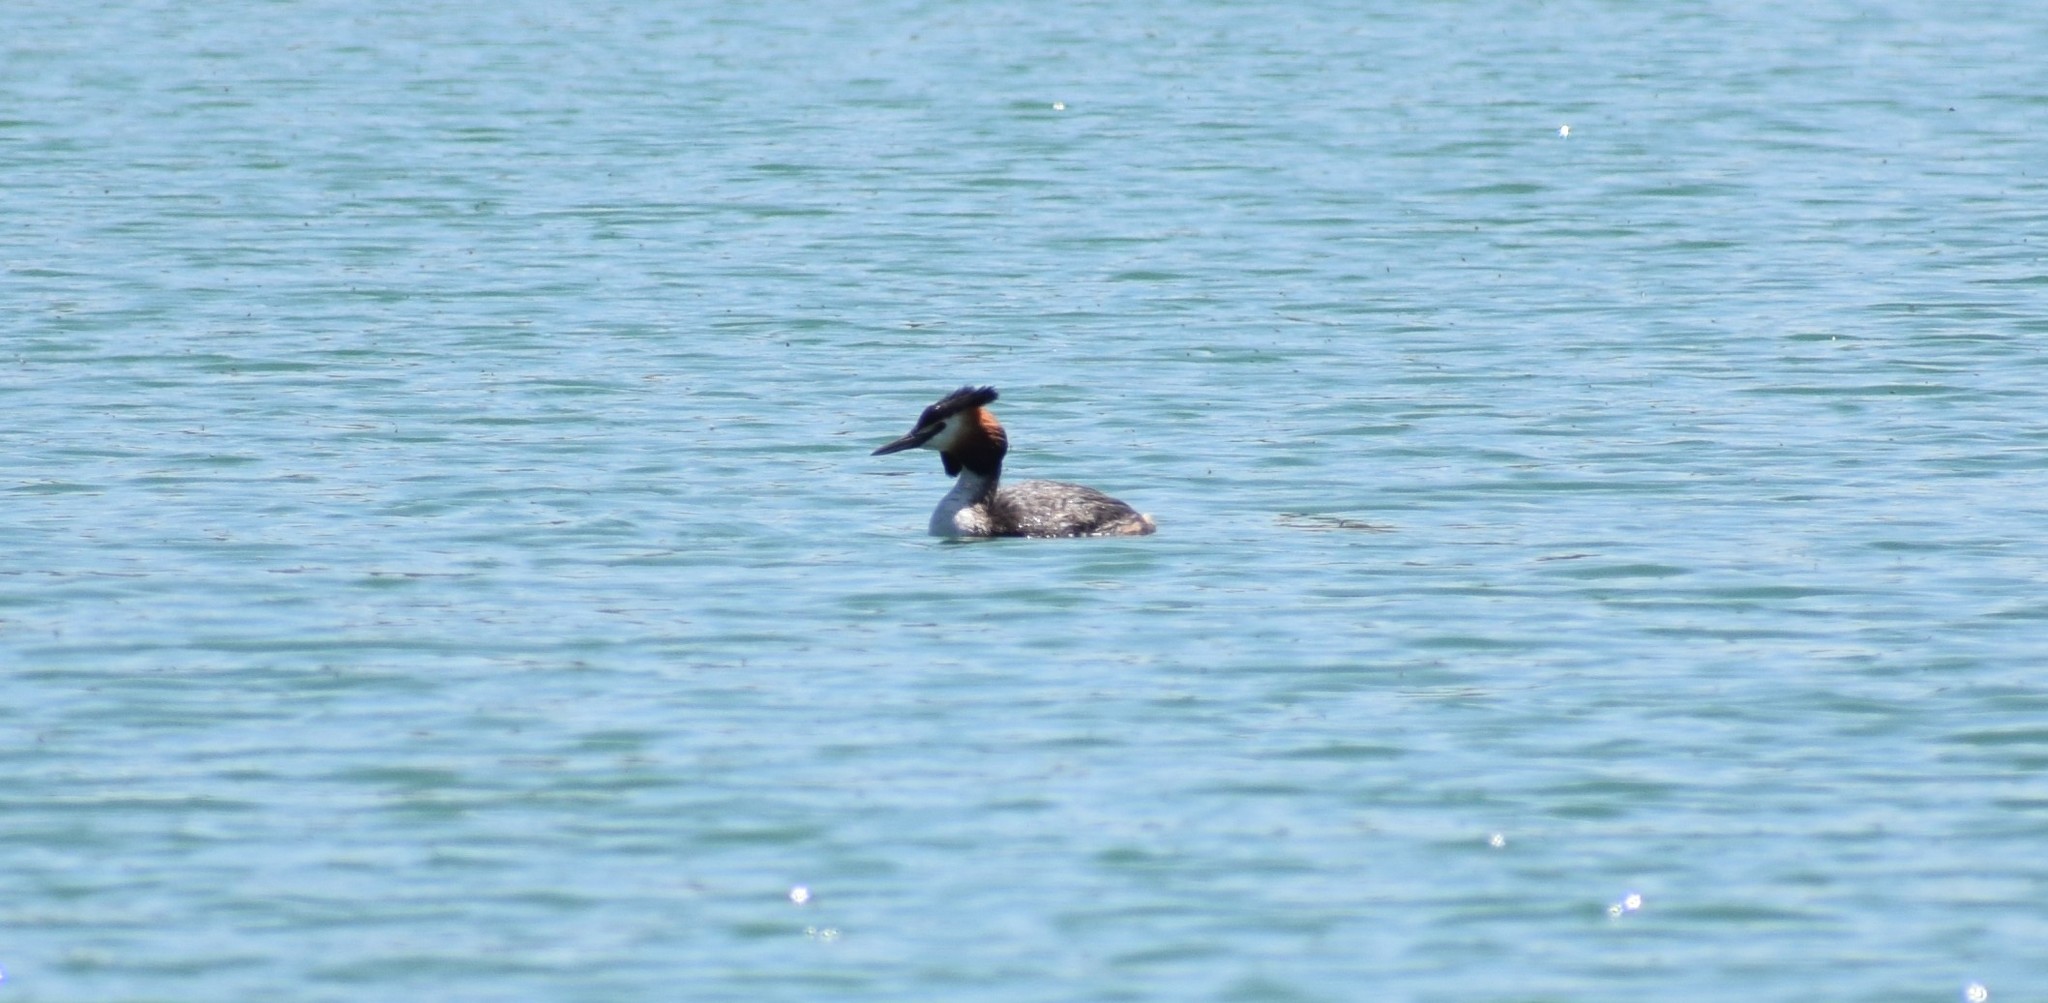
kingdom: Animalia
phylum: Chordata
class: Aves
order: Podicipediformes
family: Podicipedidae
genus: Podiceps
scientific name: Podiceps cristatus
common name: Great crested grebe
